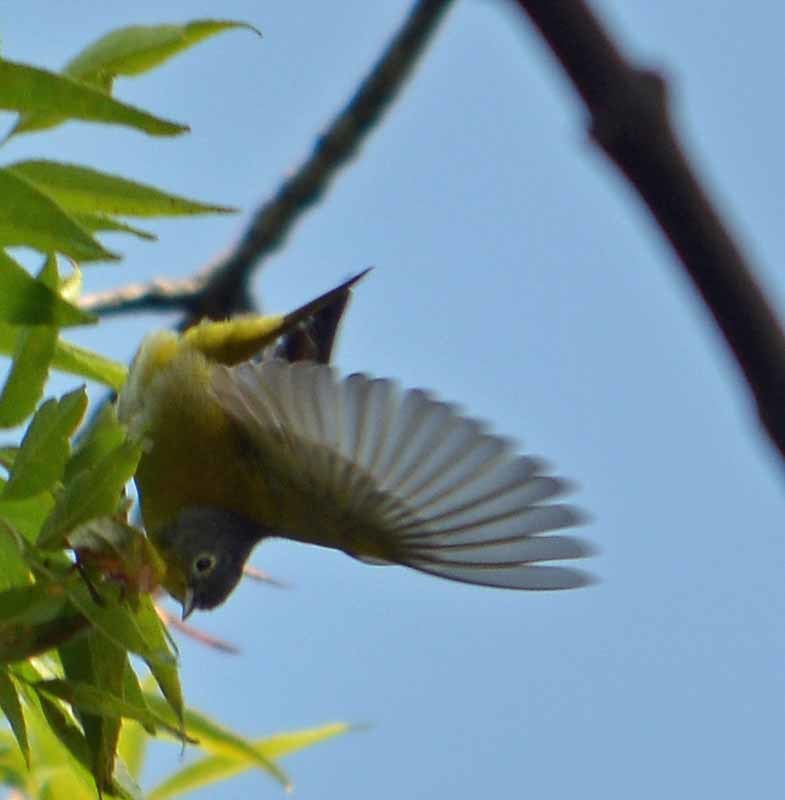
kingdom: Animalia
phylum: Chordata
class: Aves
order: Passeriformes
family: Parulidae
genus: Leiothlypis
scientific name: Leiothlypis ruficapilla
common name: Nashville warbler
